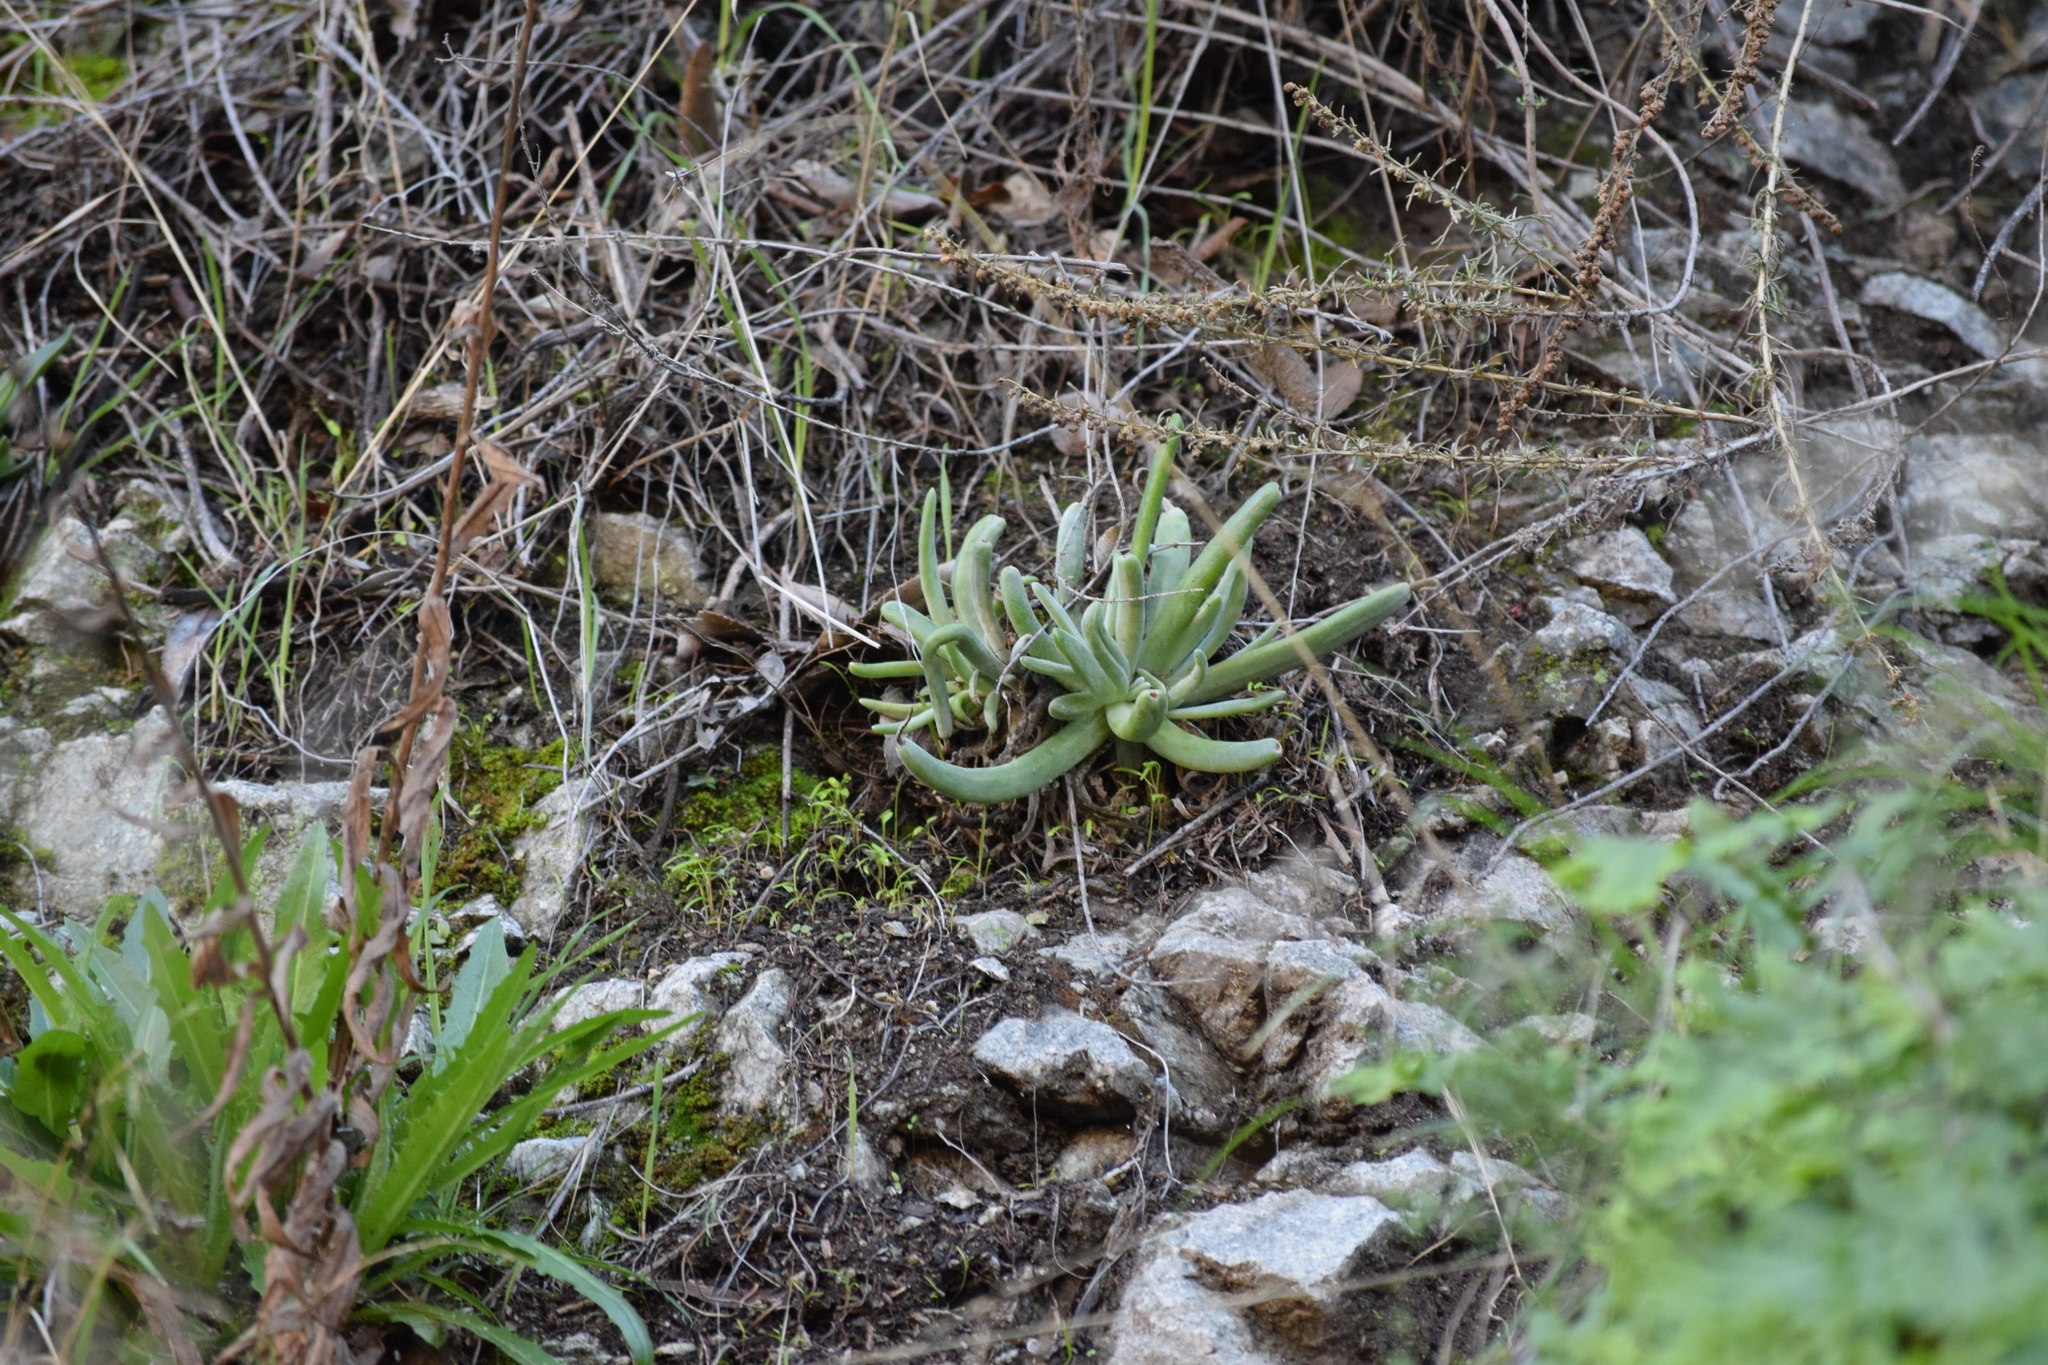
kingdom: Plantae
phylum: Tracheophyta
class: Magnoliopsida
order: Saxifragales
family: Crassulaceae
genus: Dudleya
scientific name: Dudleya densiflora
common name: San gabriel mountains dudleya
